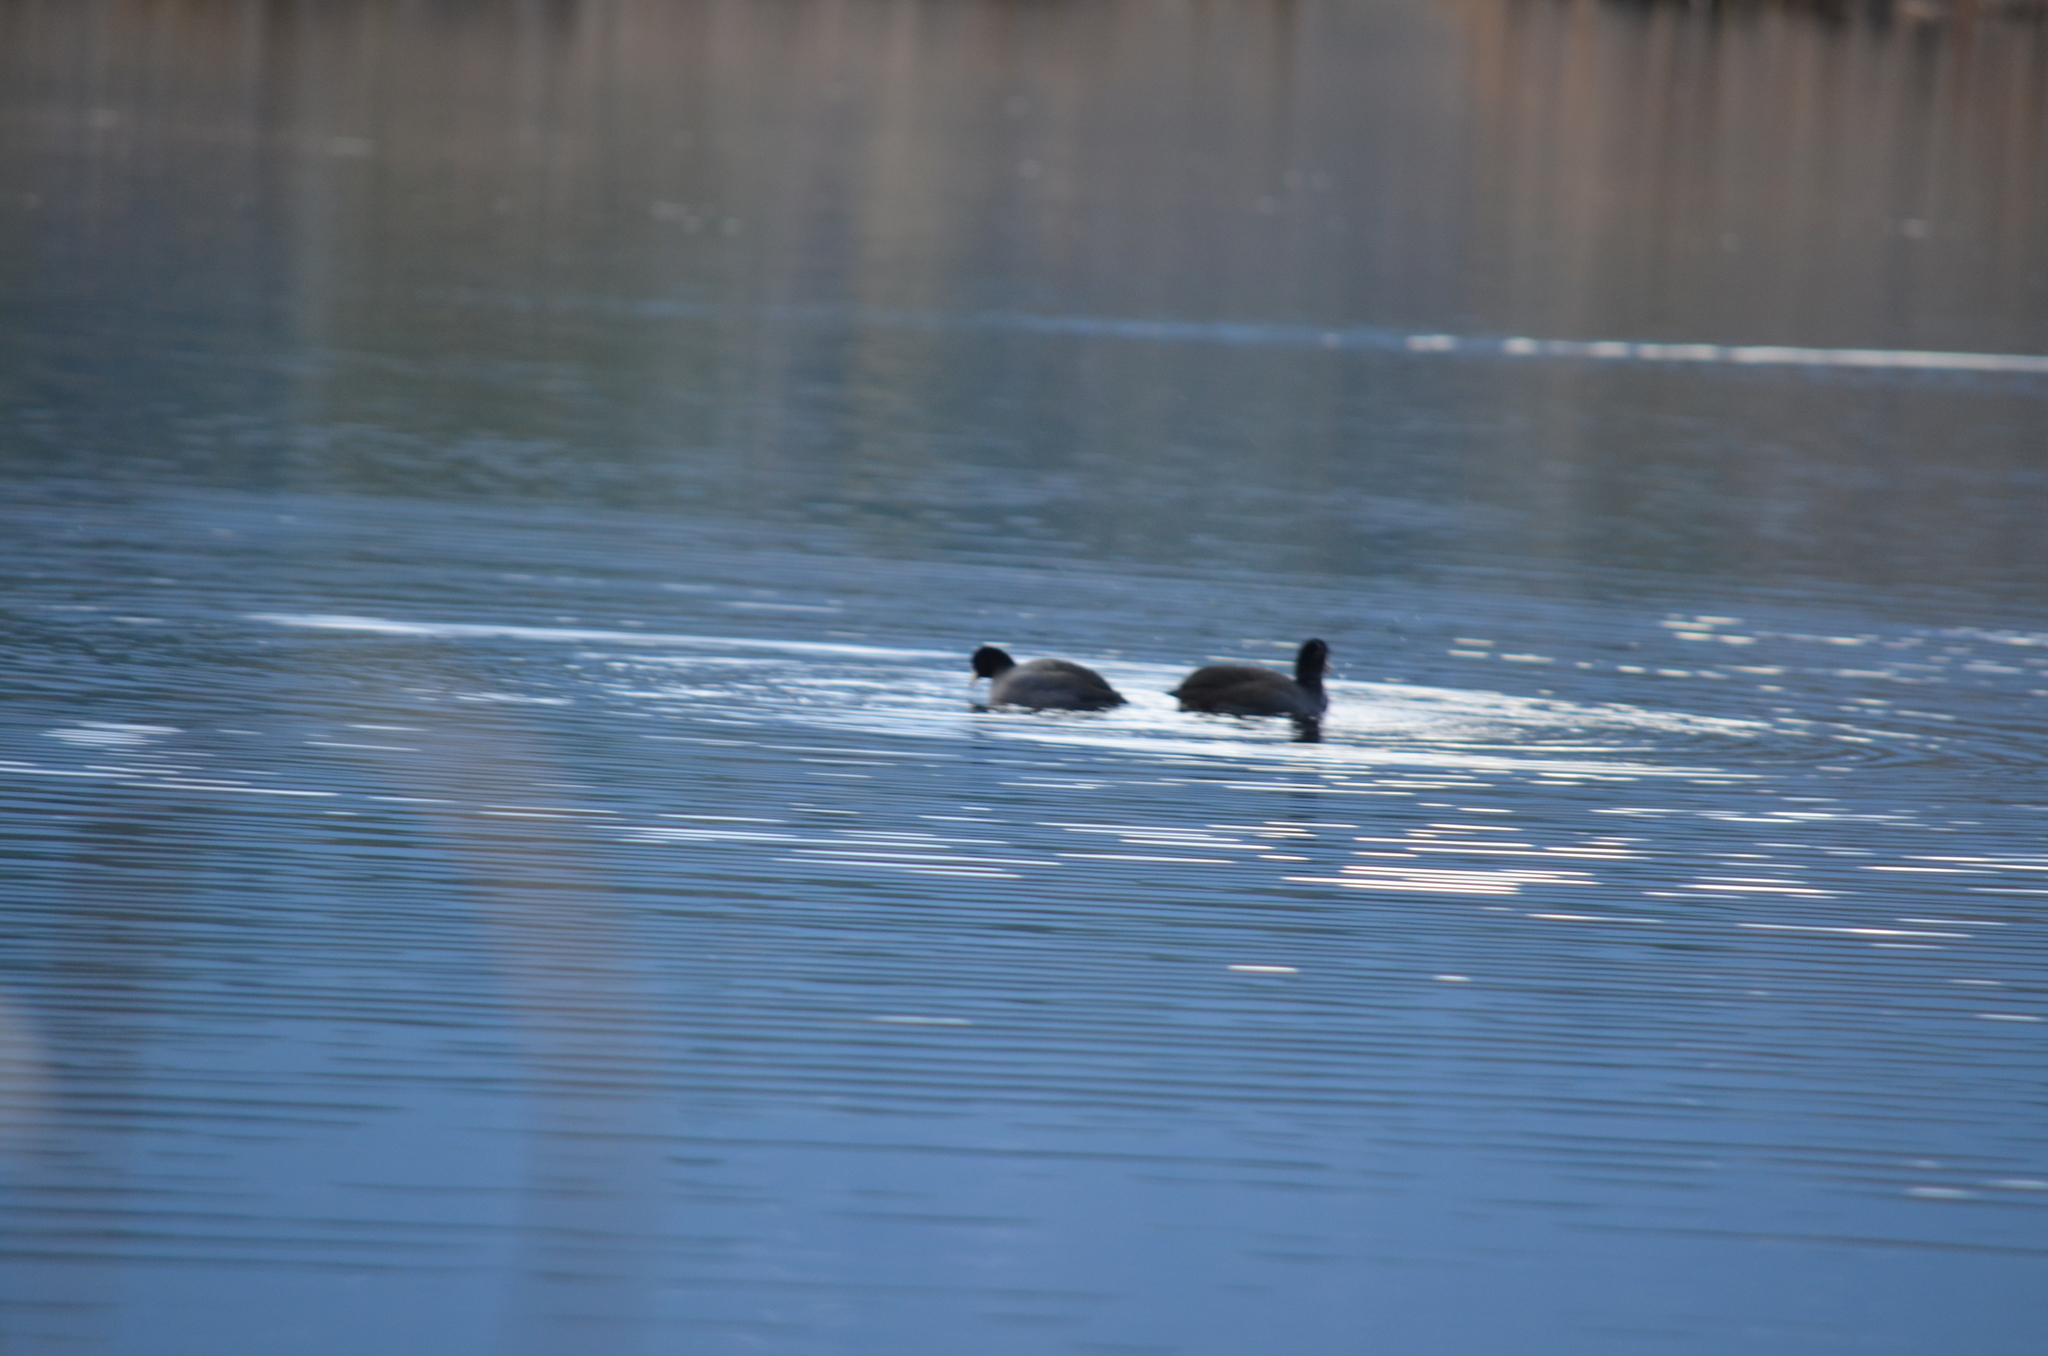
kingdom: Animalia
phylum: Chordata
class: Aves
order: Gruiformes
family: Rallidae
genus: Fulica
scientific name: Fulica americana
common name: American coot
